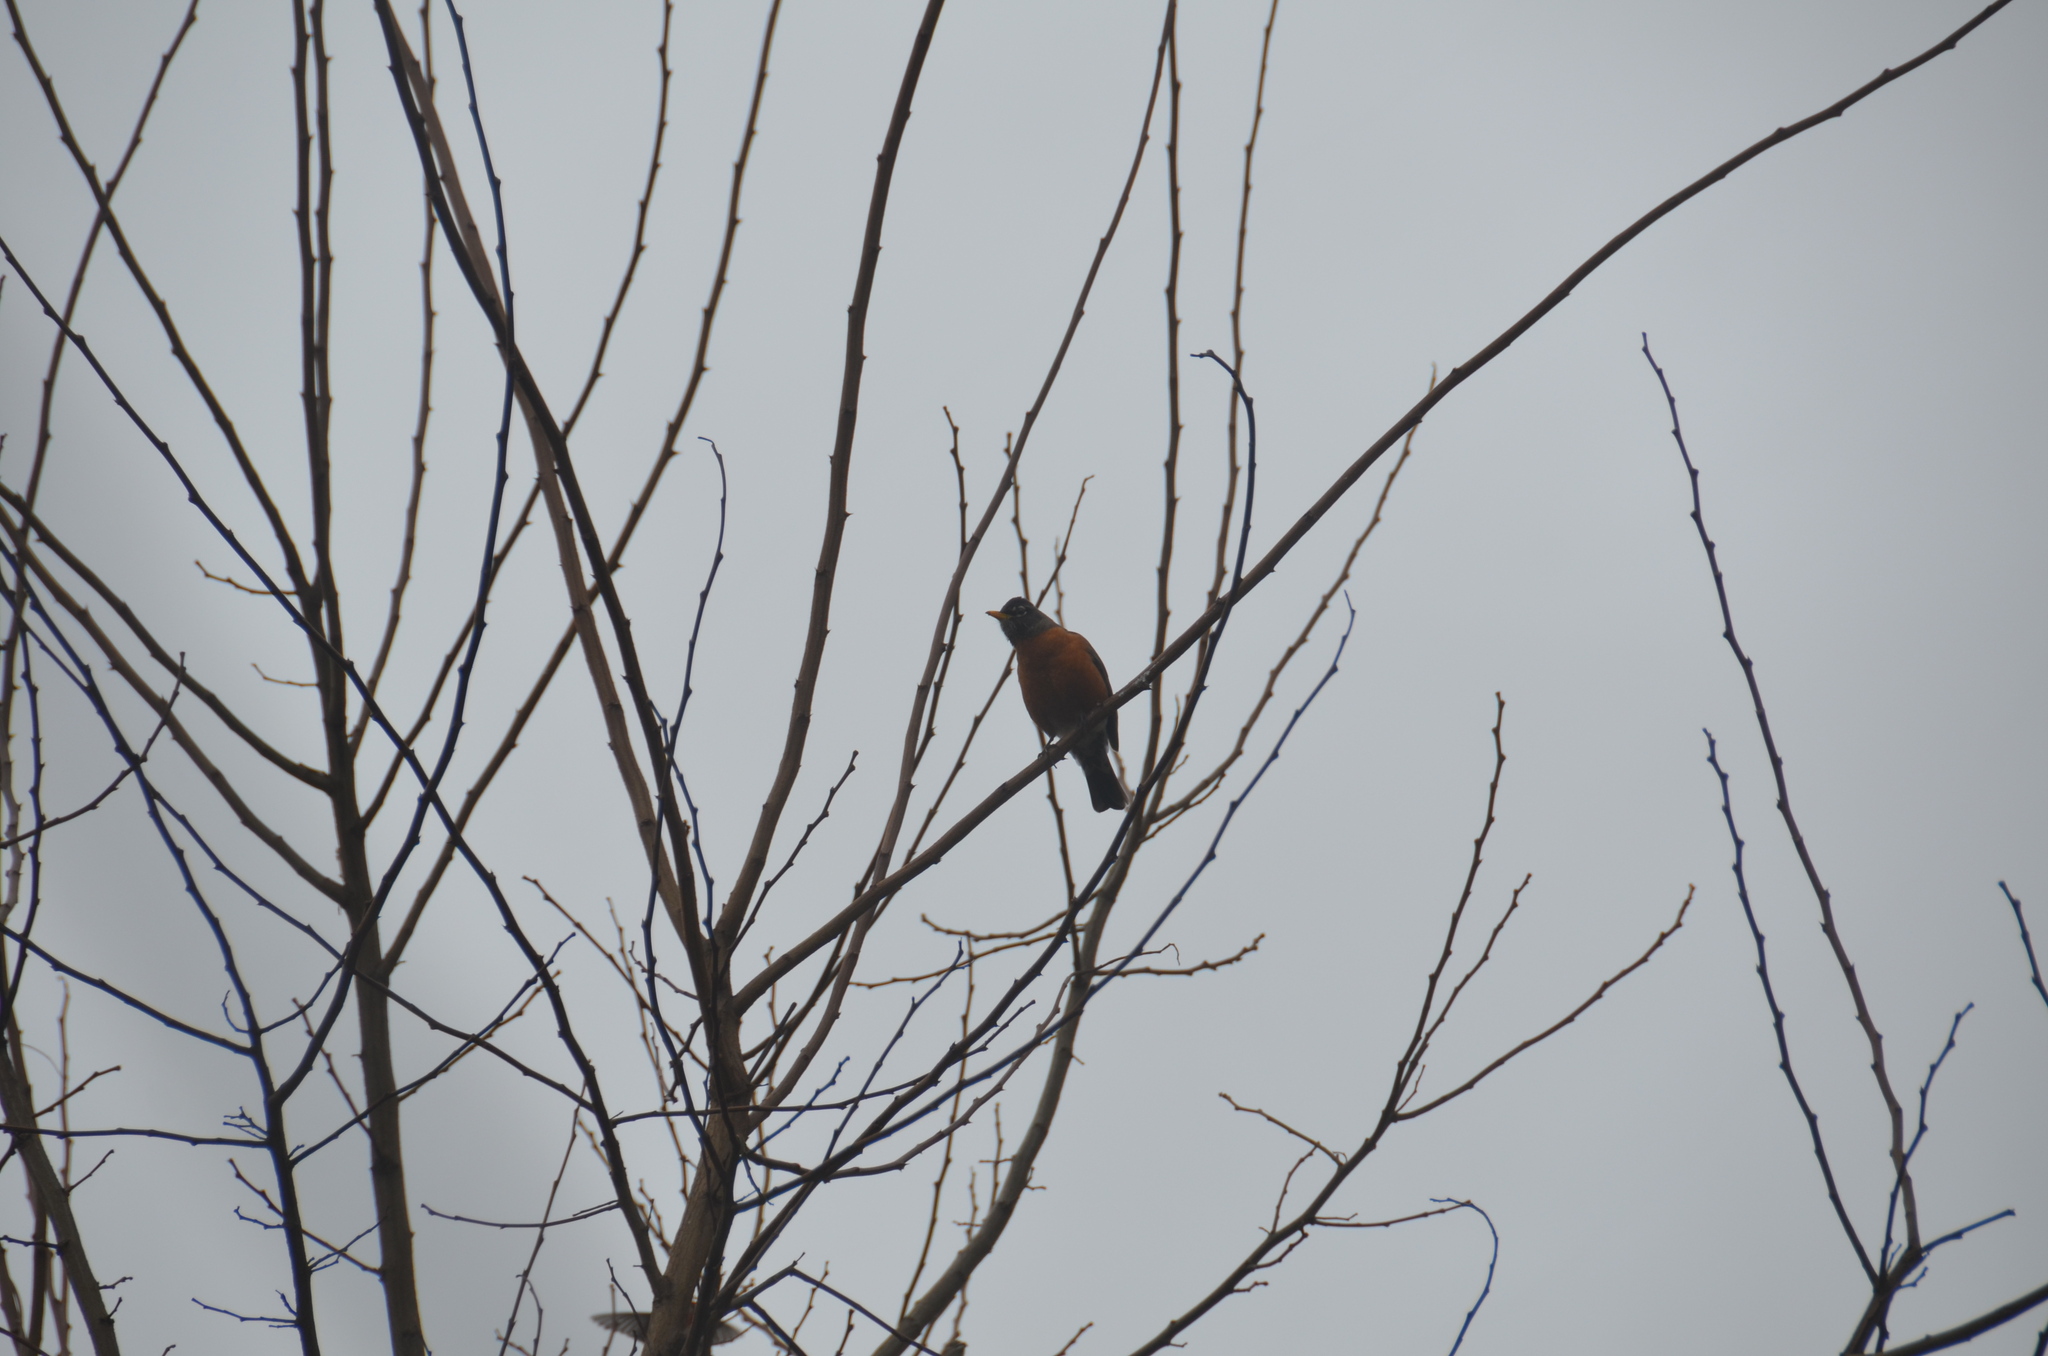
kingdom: Animalia
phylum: Chordata
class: Aves
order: Passeriformes
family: Turdidae
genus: Turdus
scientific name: Turdus migratorius
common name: American robin
